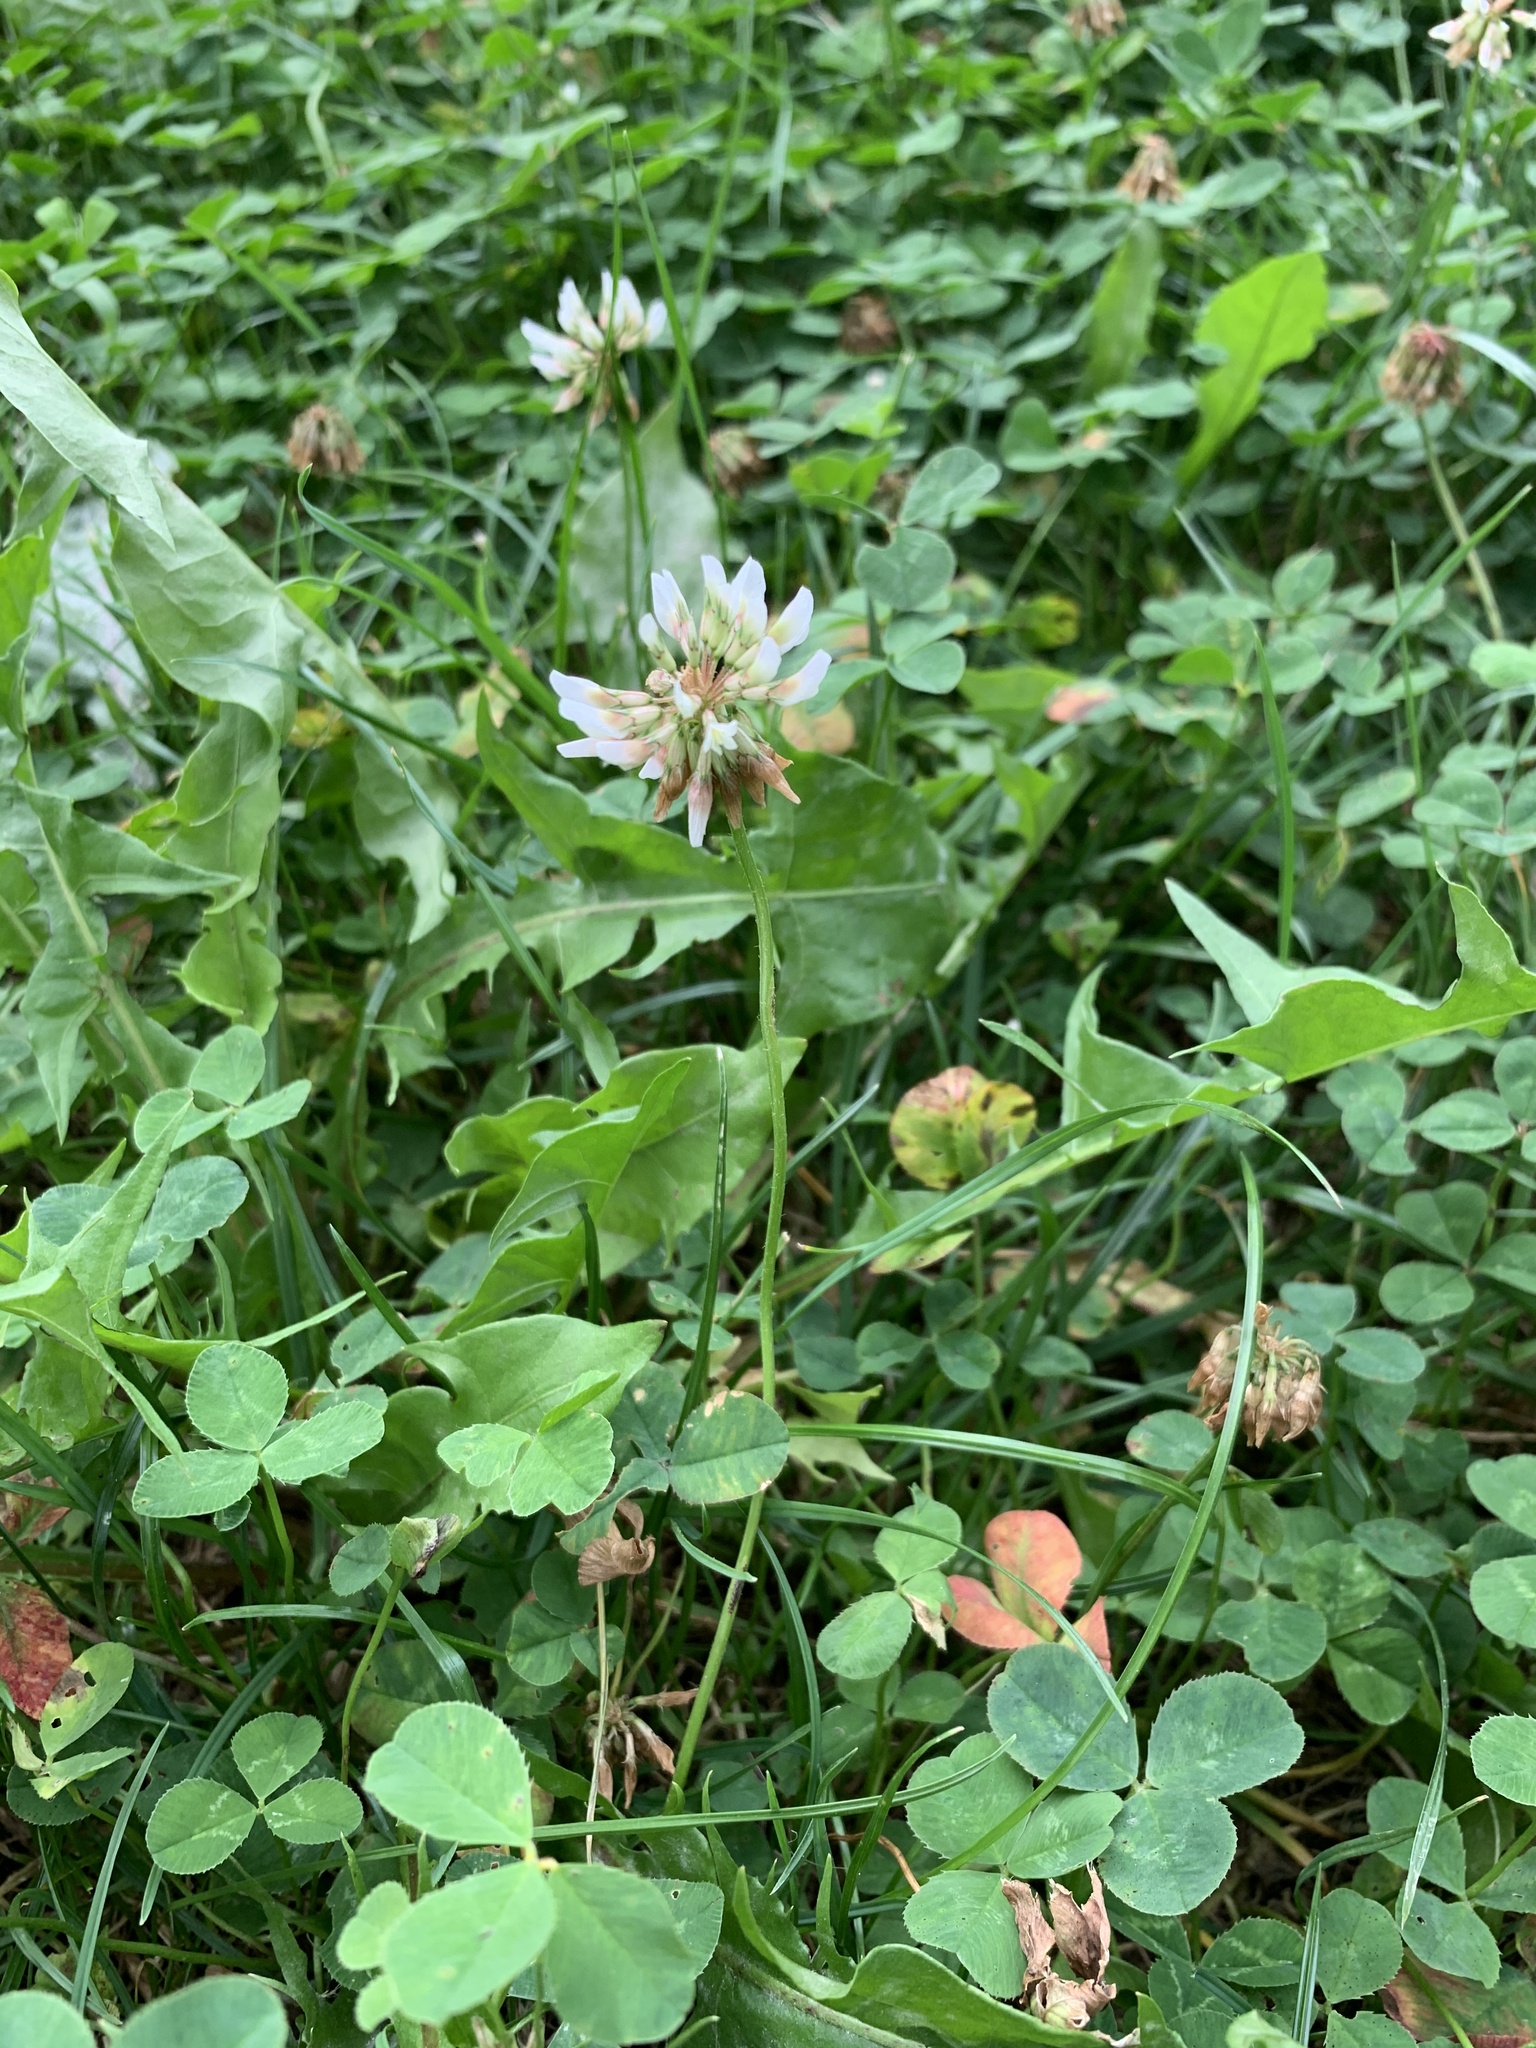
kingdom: Plantae
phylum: Tracheophyta
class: Magnoliopsida
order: Fabales
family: Fabaceae
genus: Trifolium
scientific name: Trifolium repens
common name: White clover
